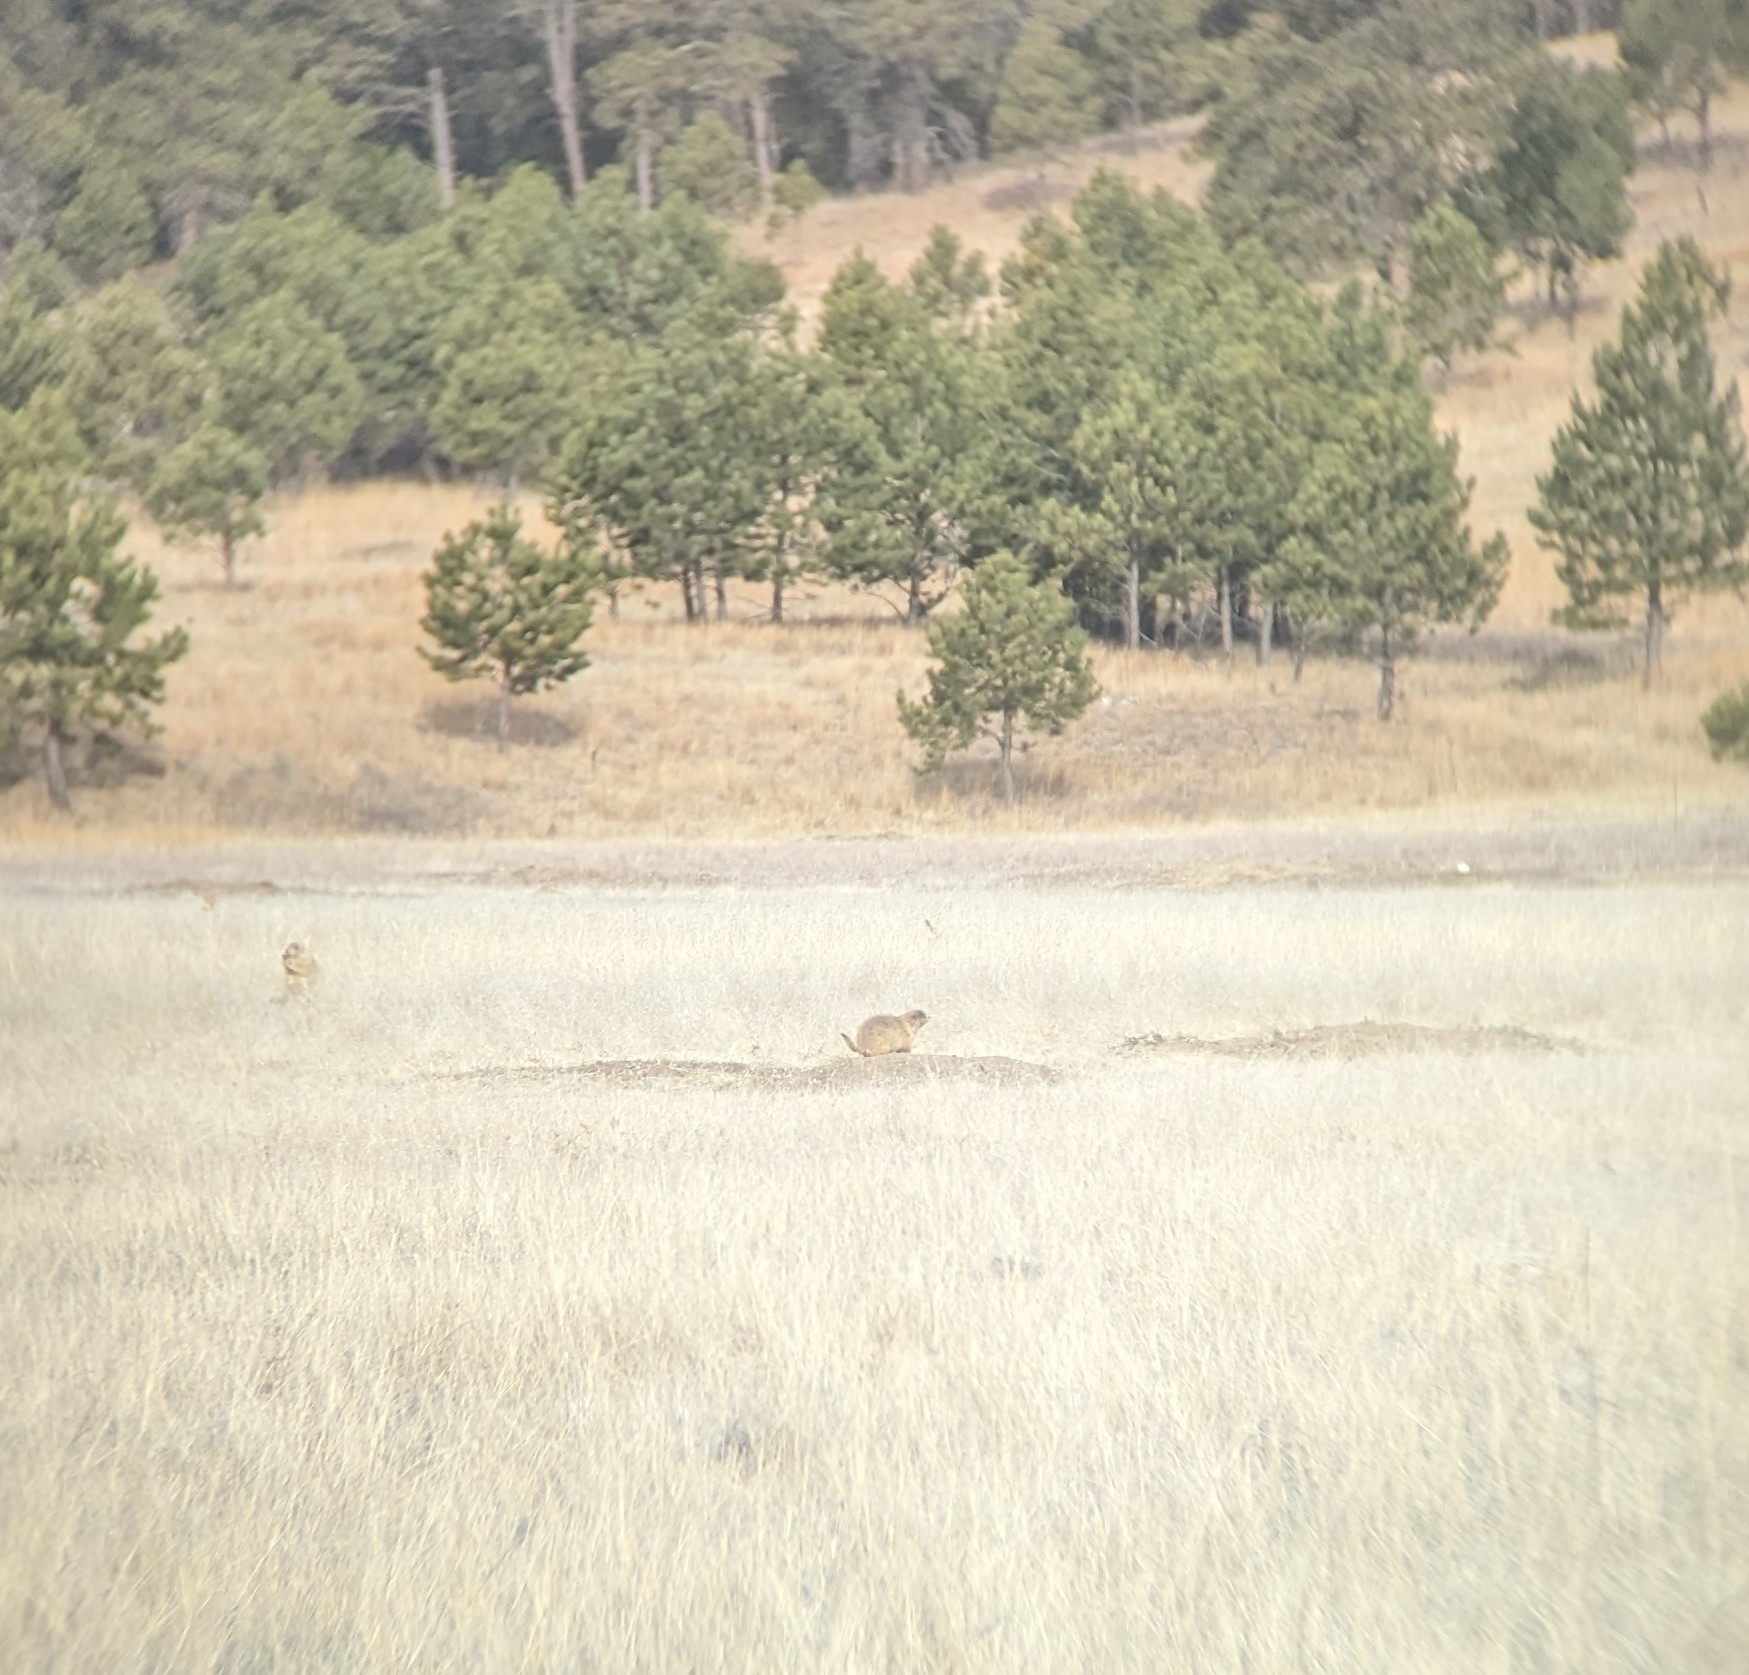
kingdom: Animalia
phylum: Chordata
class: Mammalia
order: Rodentia
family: Sciuridae
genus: Cynomys
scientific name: Cynomys ludovicianus
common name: Black-tailed prairie dog
